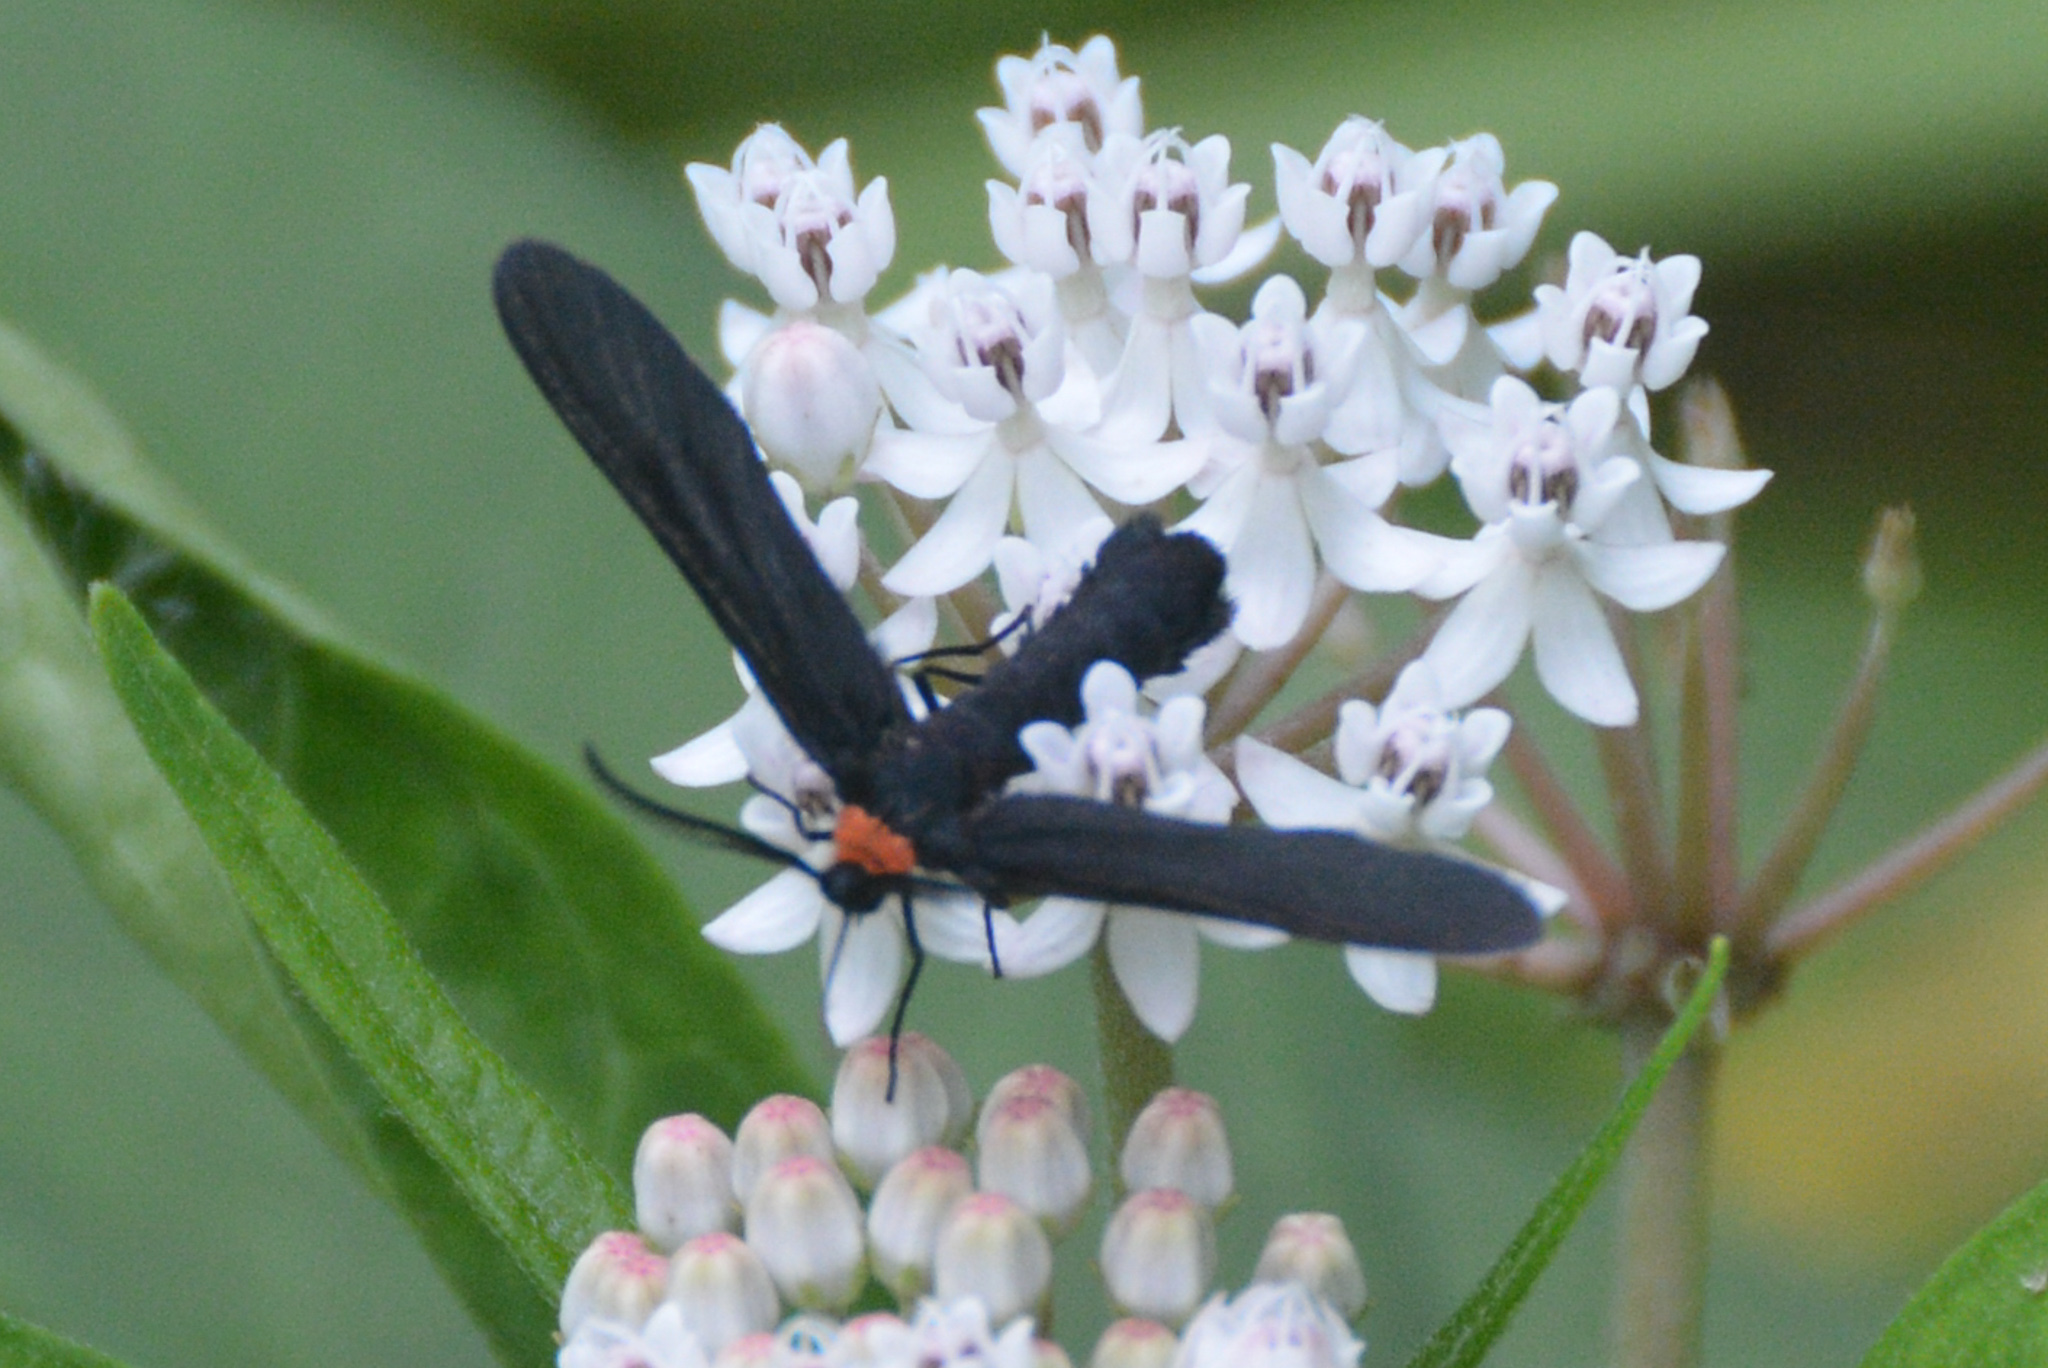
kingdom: Animalia
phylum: Arthropoda
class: Insecta
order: Lepidoptera
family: Zygaenidae
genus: Harrisina
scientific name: Harrisina americana
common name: Grapeleaf skeletonizer moth
